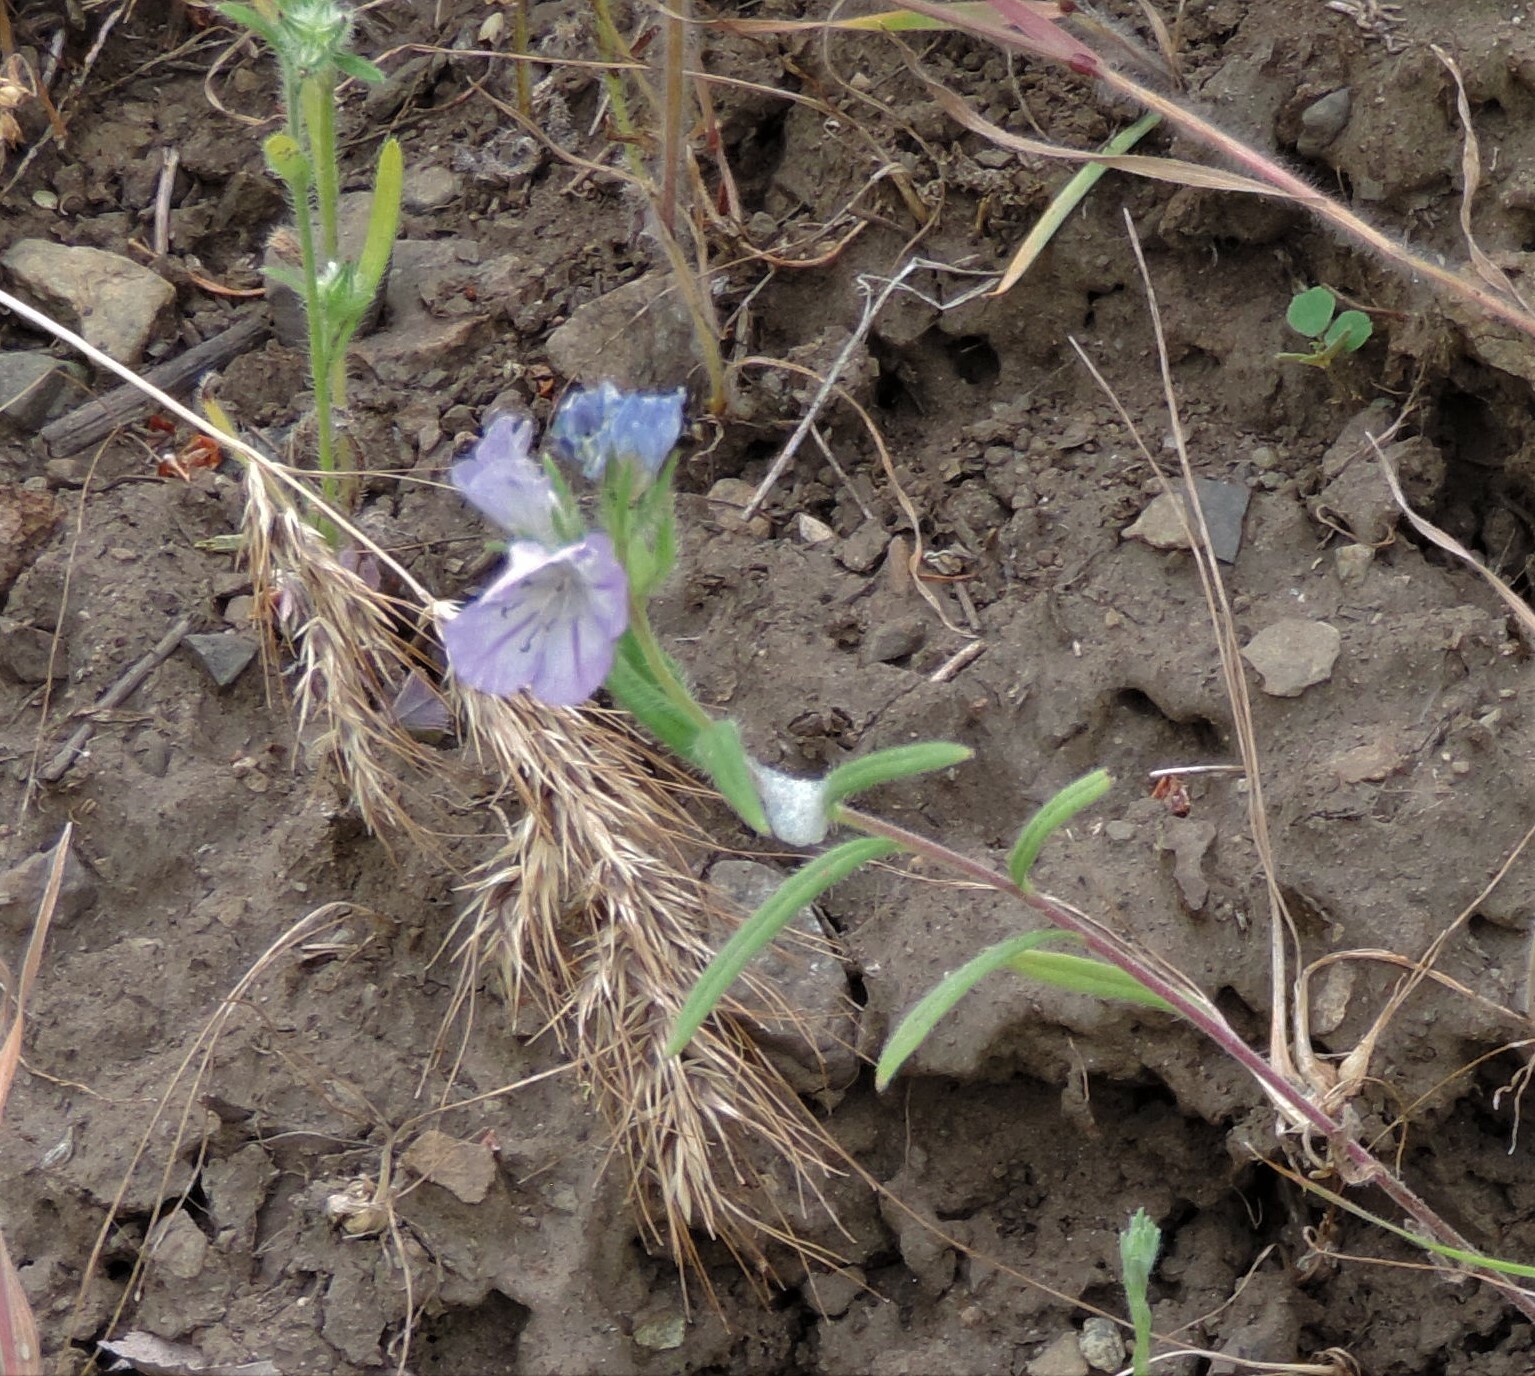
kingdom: Plantae
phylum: Tracheophyta
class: Magnoliopsida
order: Boraginales
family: Hydrophyllaceae
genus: Phacelia
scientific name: Phacelia linearis
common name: Linear-leaved phacelia
